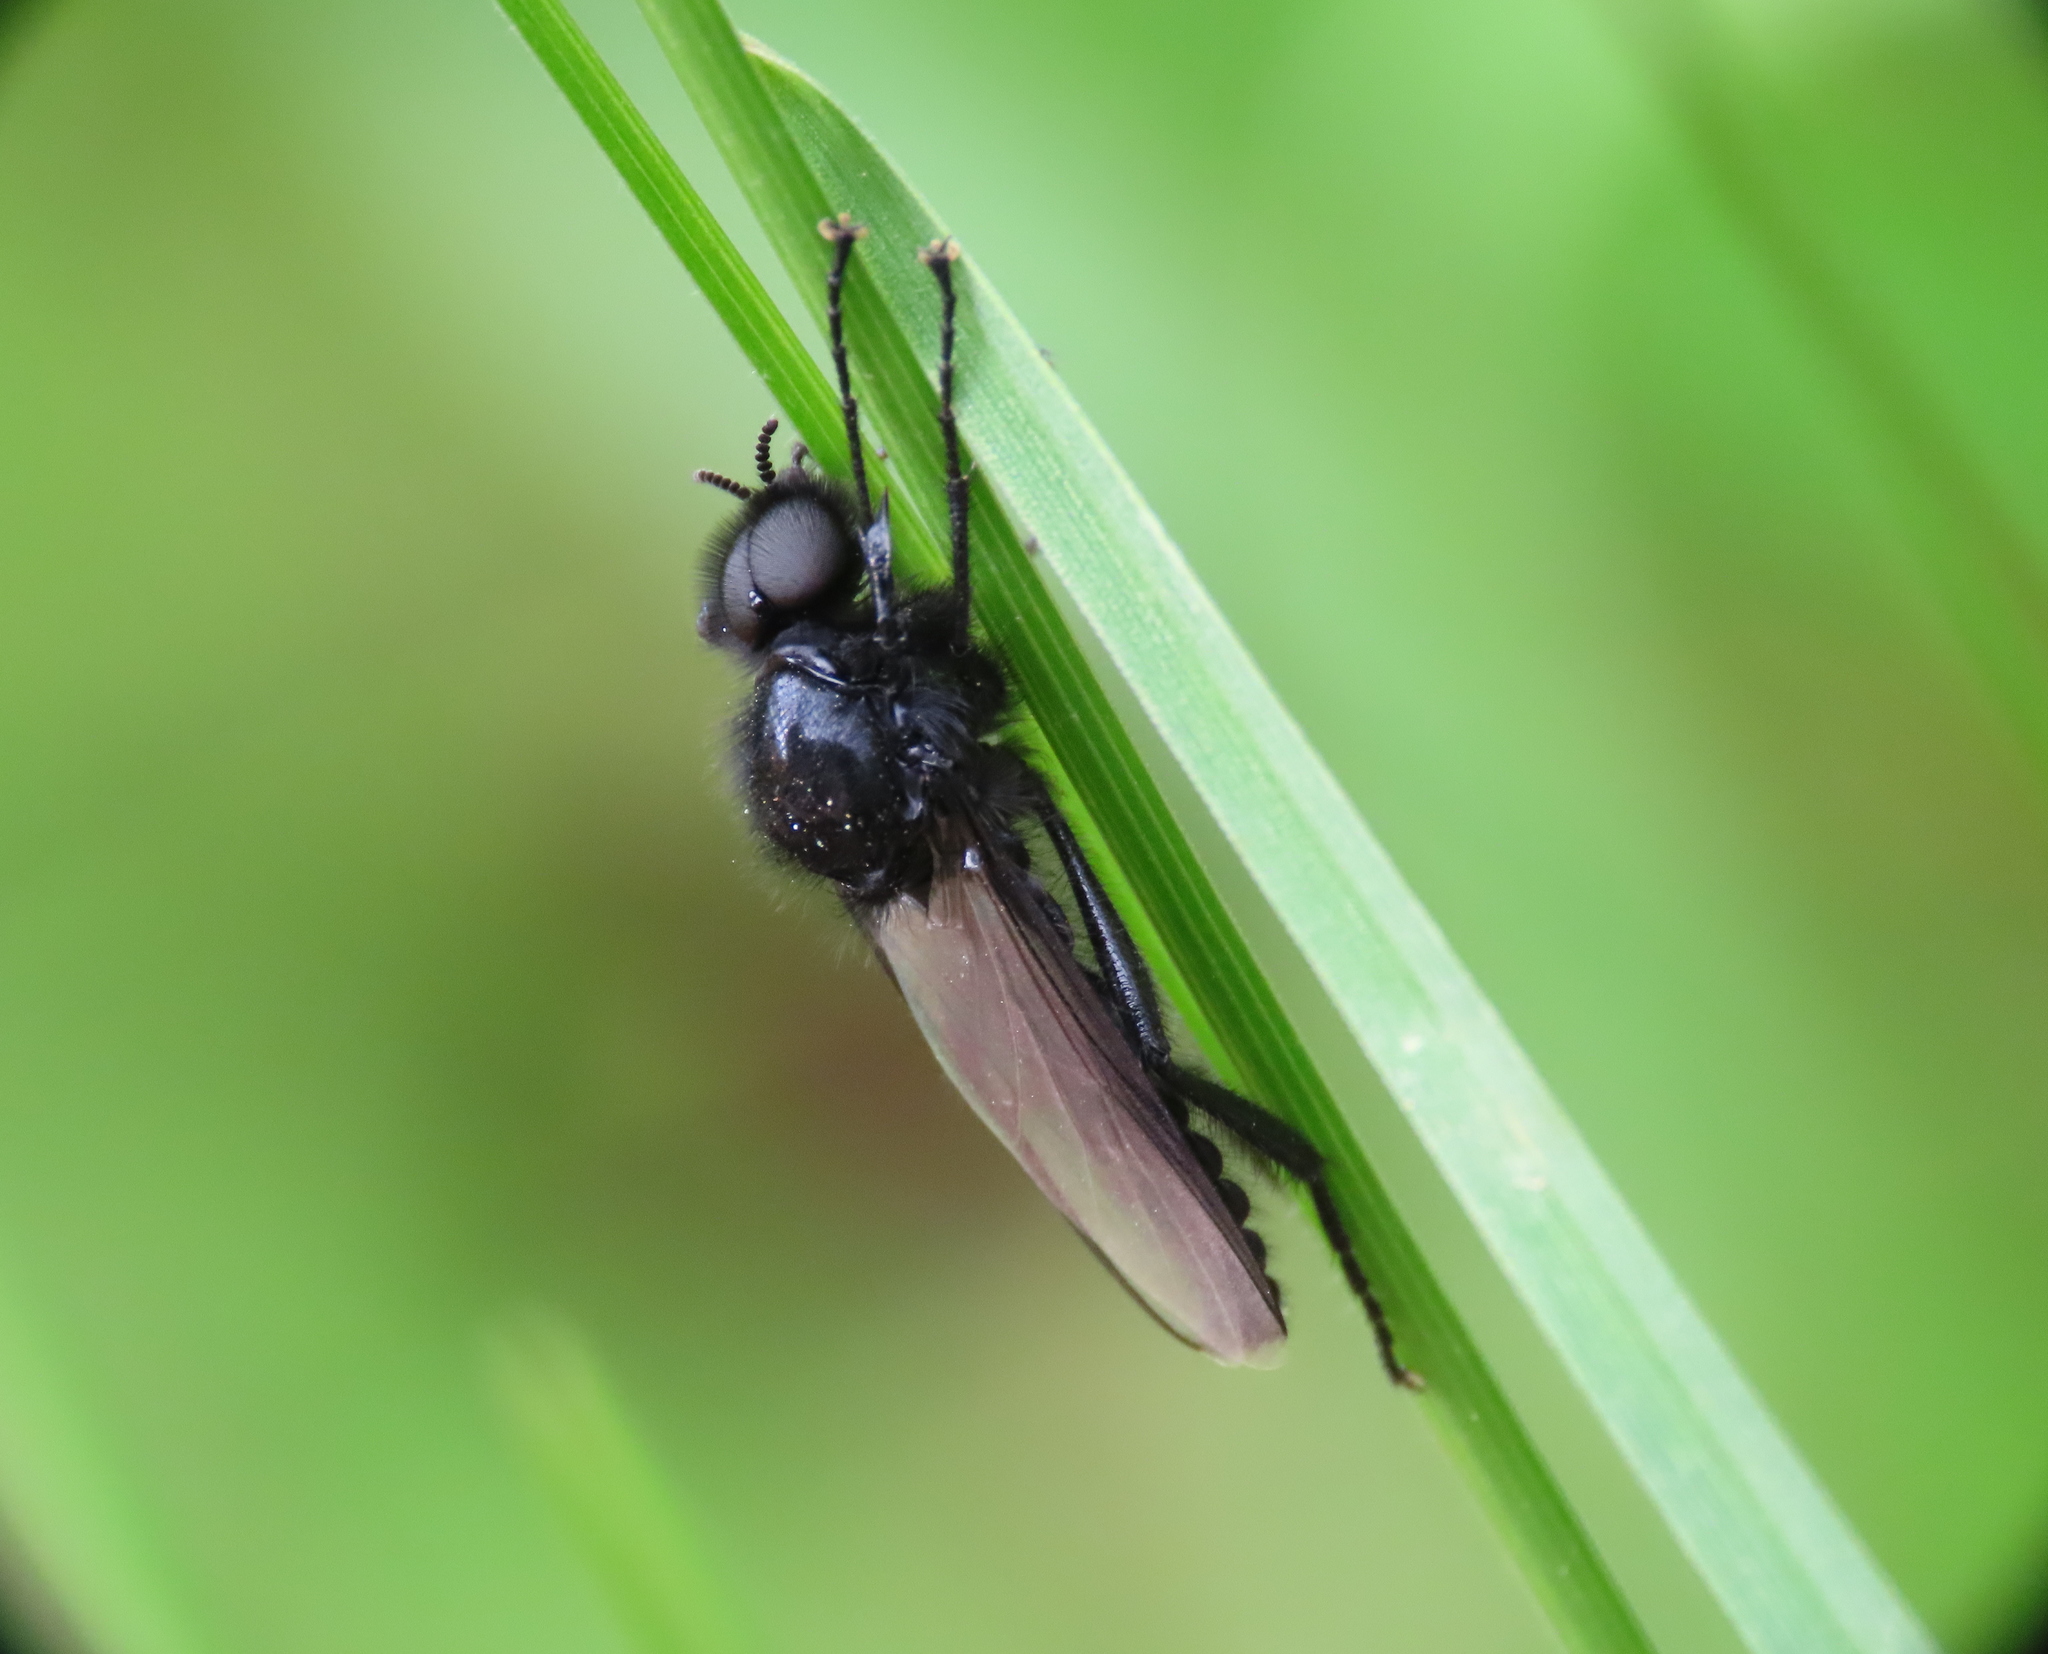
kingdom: Animalia
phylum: Arthropoda
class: Insecta
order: Diptera
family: Bibionidae
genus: Bibio
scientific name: Bibio marci
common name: St marks fly
